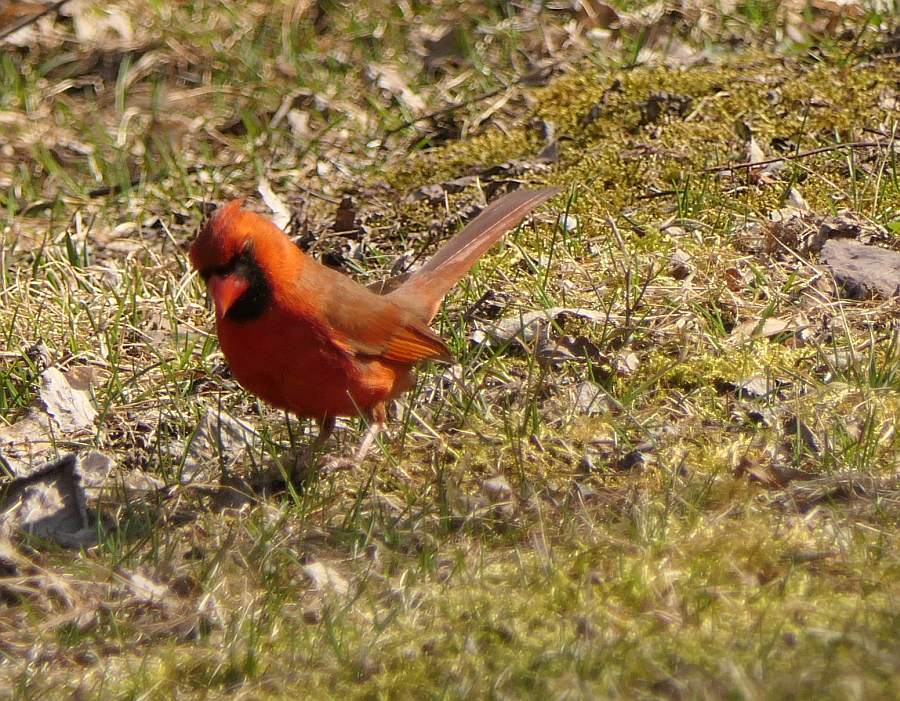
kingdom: Animalia
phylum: Chordata
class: Aves
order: Passeriformes
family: Cardinalidae
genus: Cardinalis
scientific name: Cardinalis cardinalis
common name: Northern cardinal
